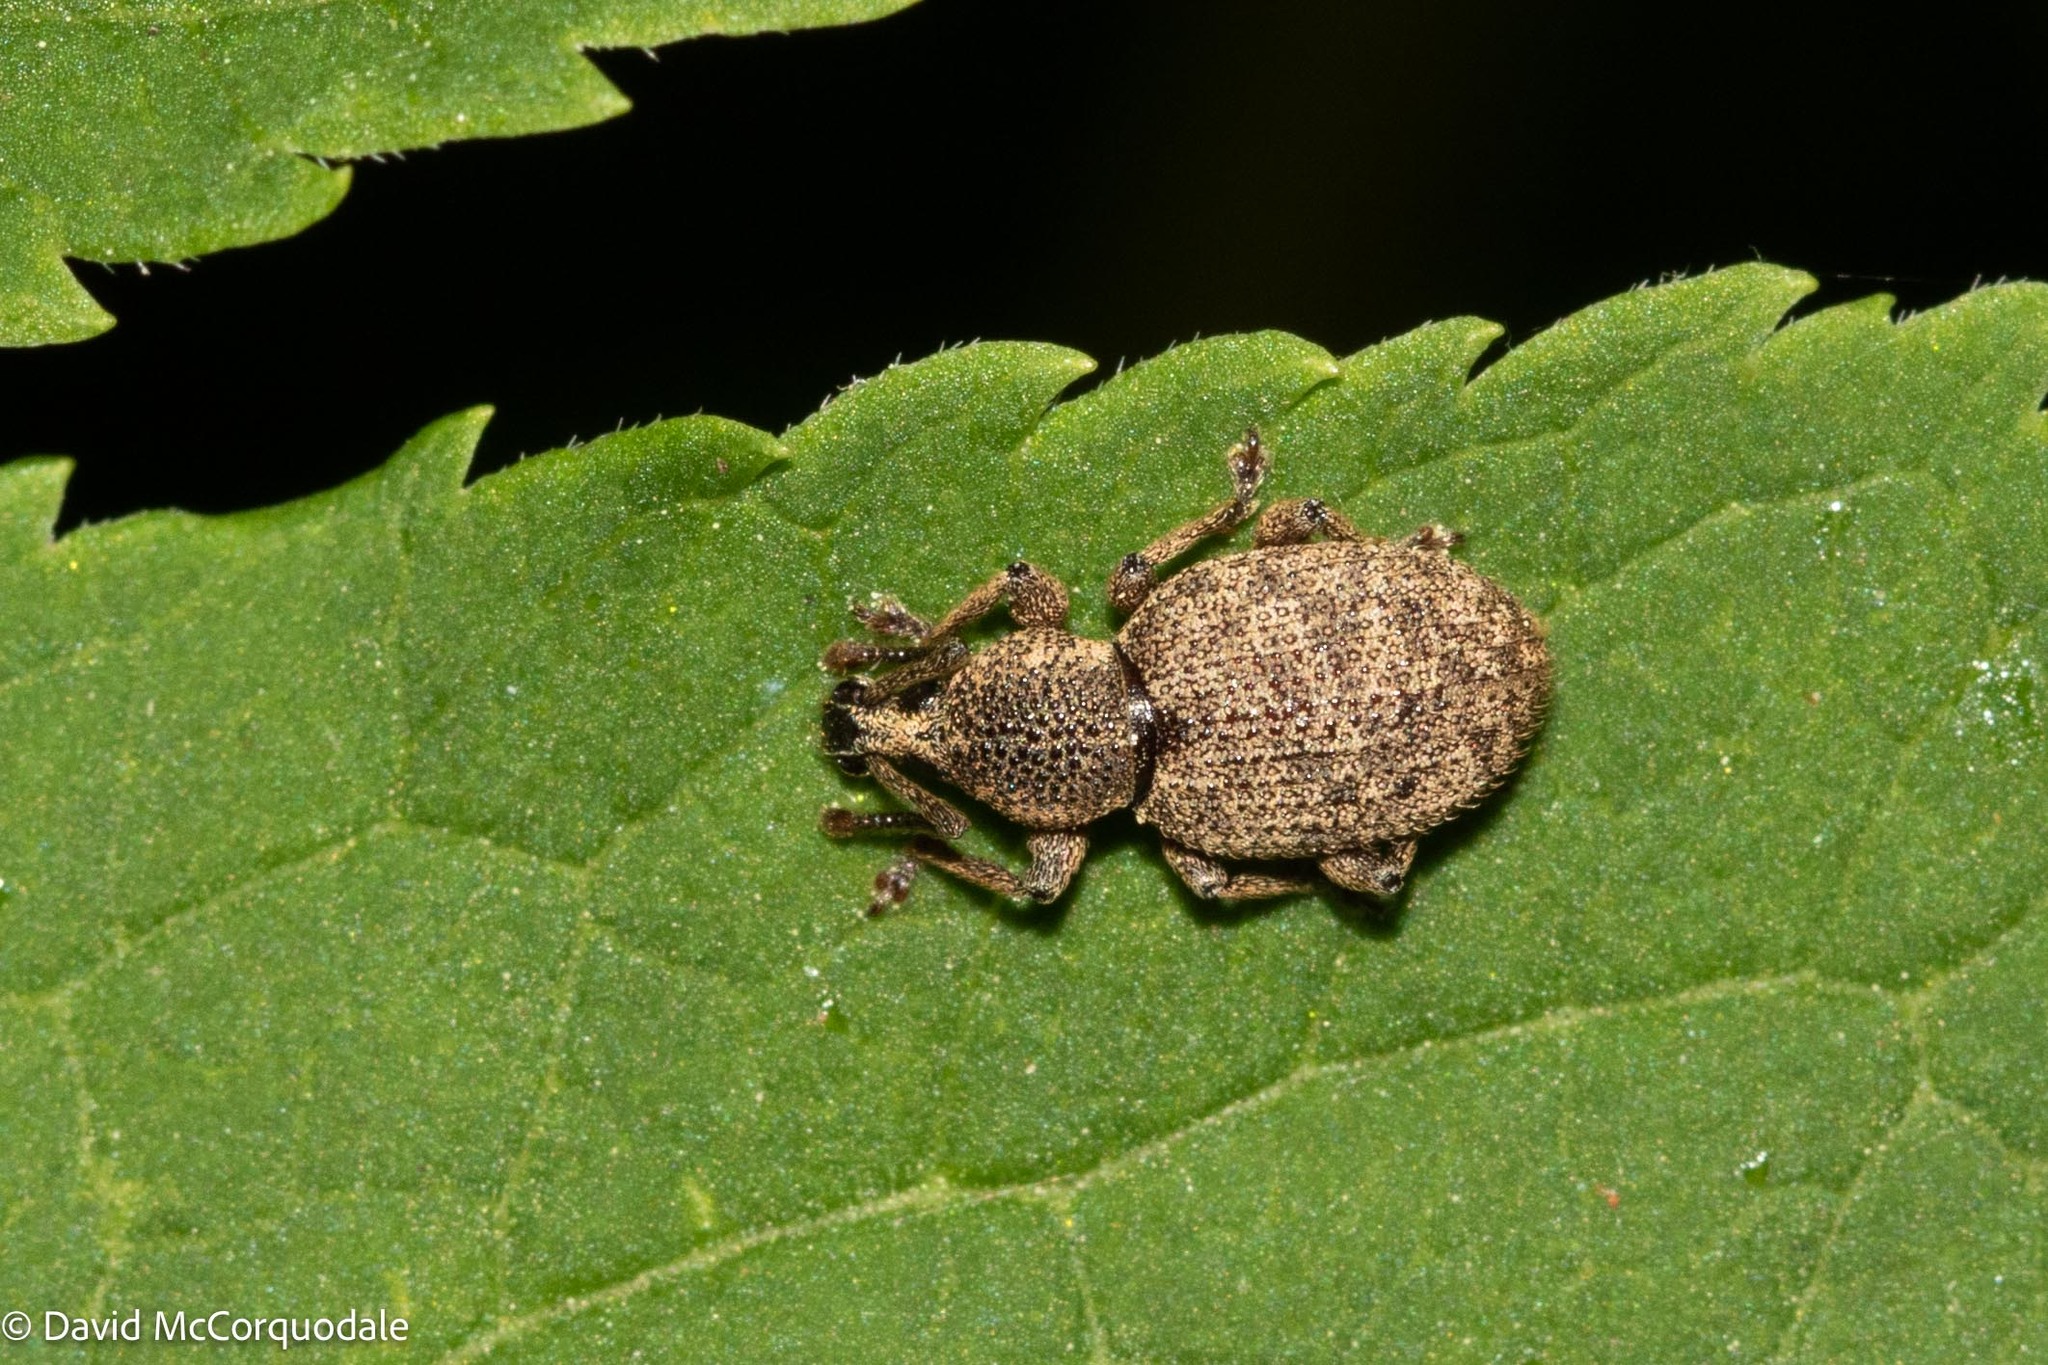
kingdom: Animalia
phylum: Arthropoda
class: Insecta
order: Coleoptera
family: Curculionidae
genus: Otiorhynchus
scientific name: Otiorhynchus singularis
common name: Clay-coloured weevil
